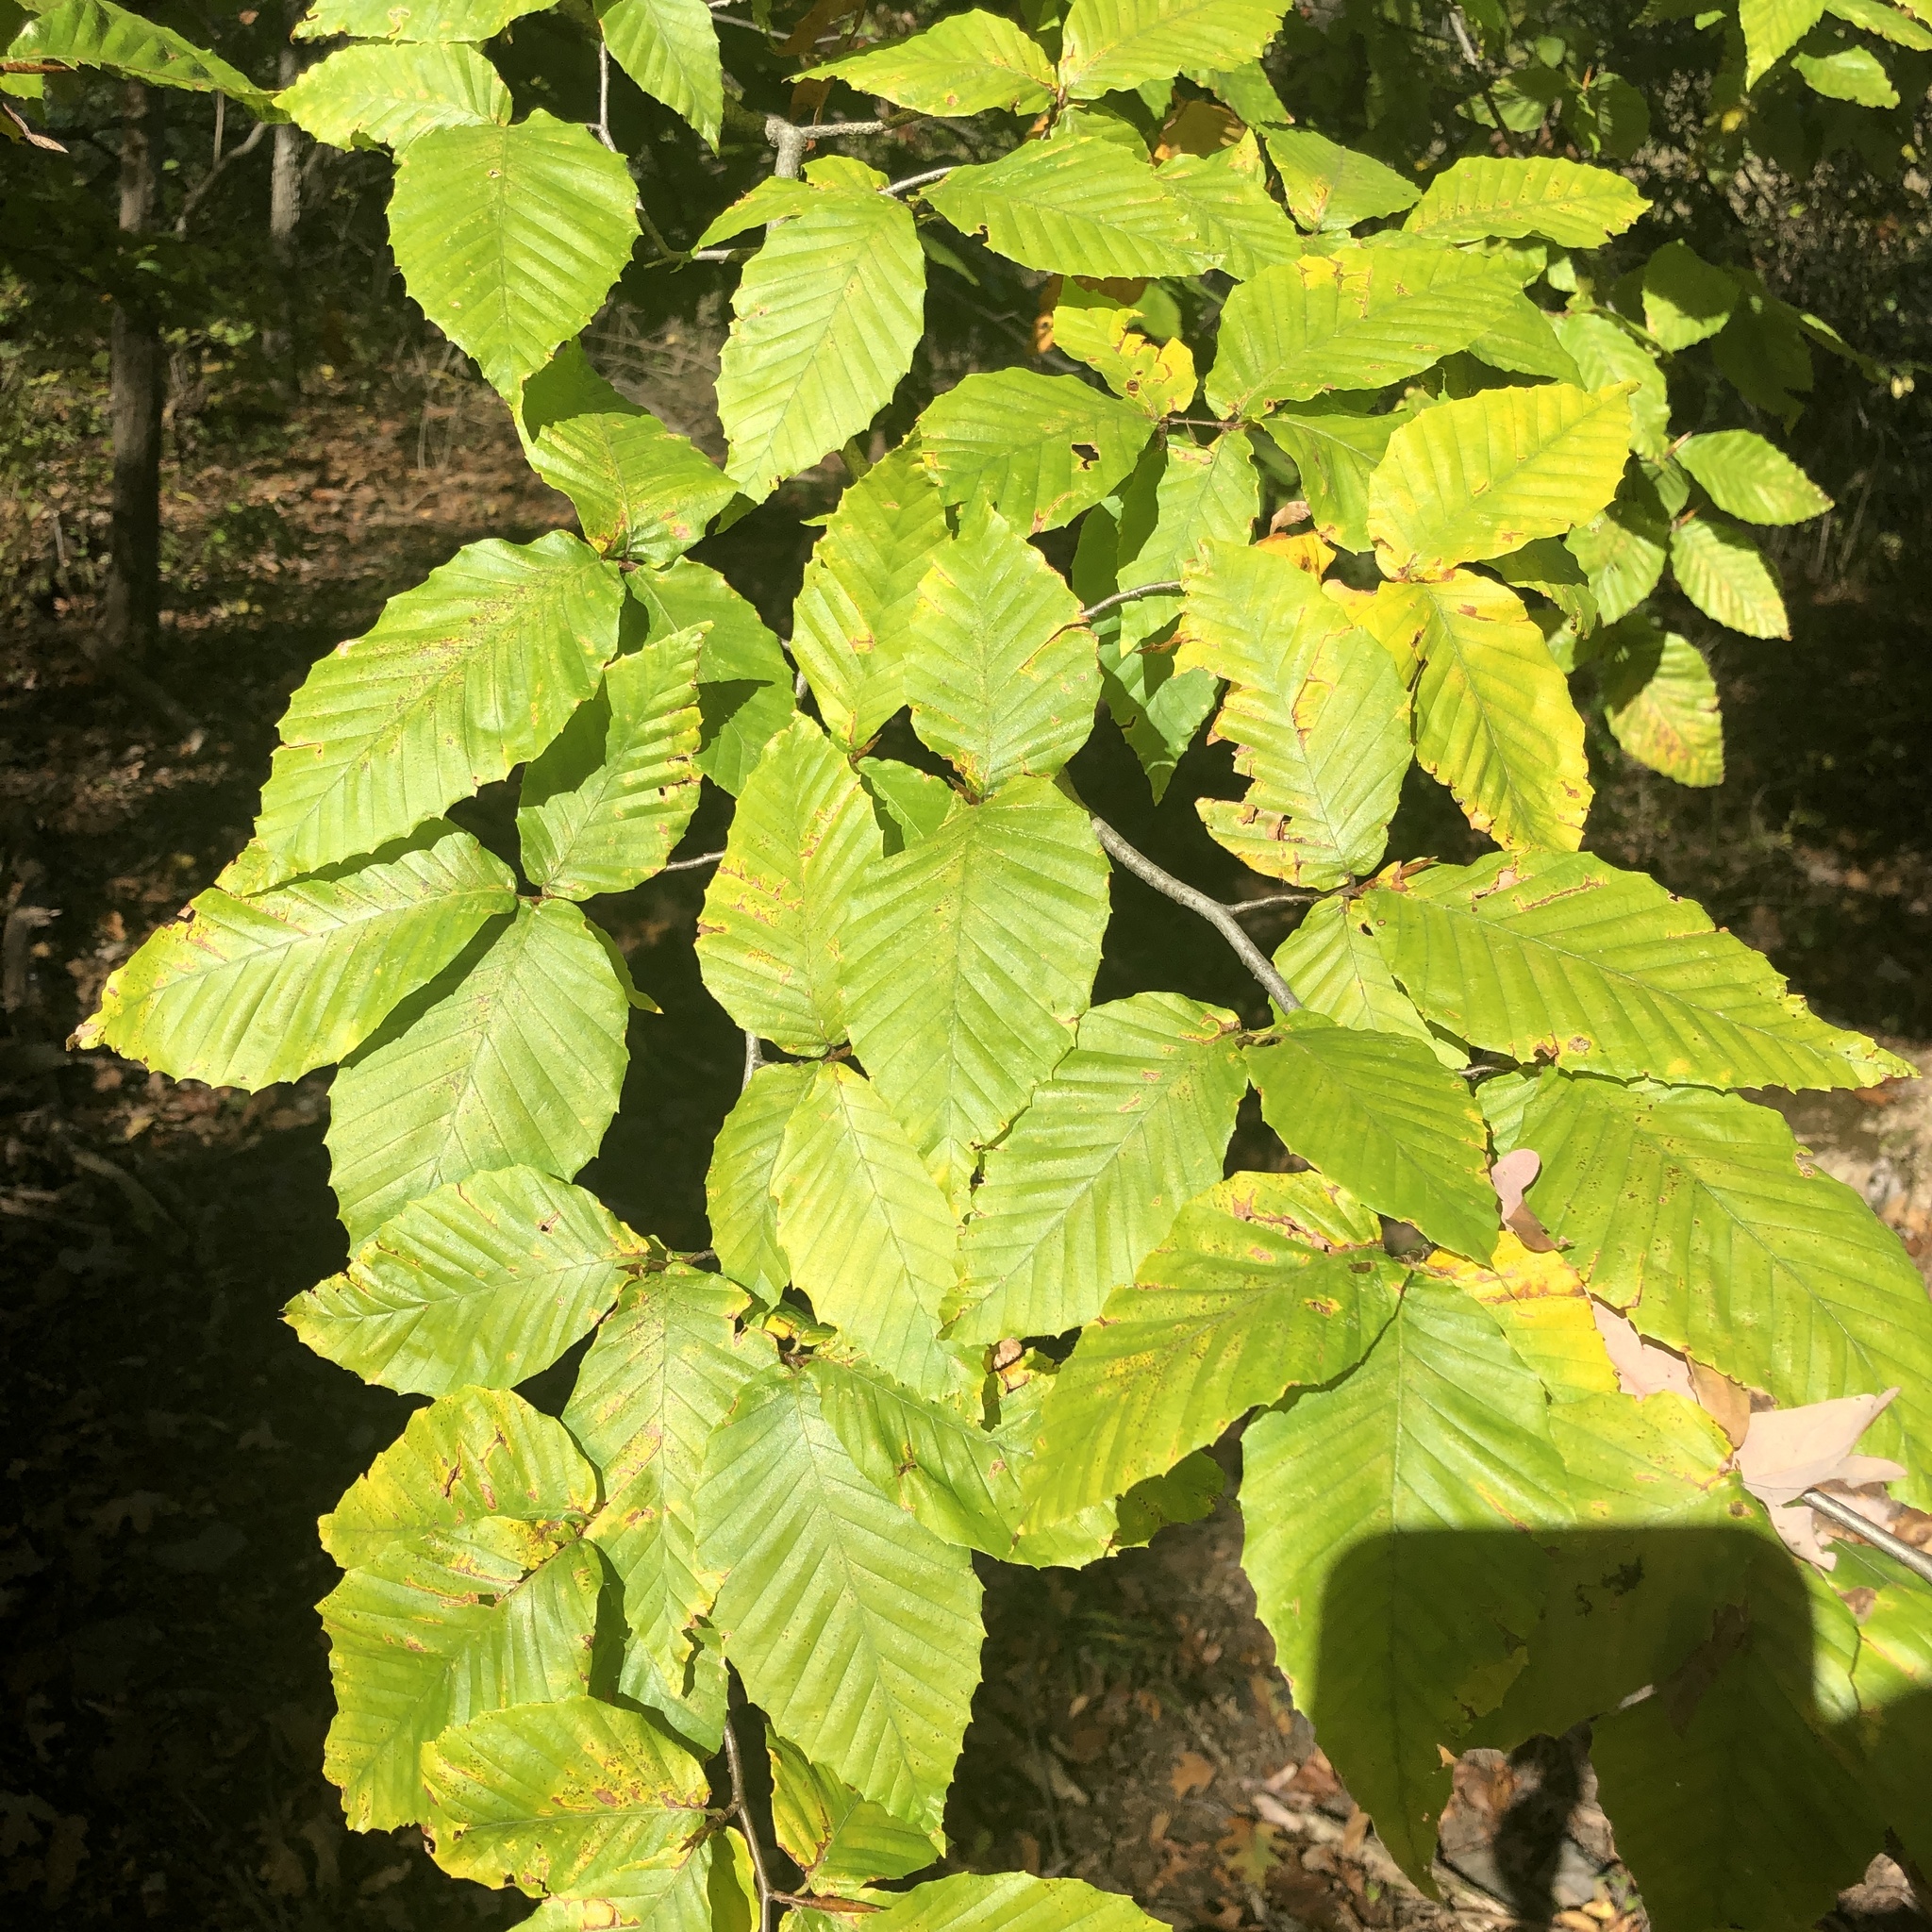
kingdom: Plantae
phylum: Tracheophyta
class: Magnoliopsida
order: Fagales
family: Fagaceae
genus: Fagus
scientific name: Fagus grandifolia
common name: American beech
